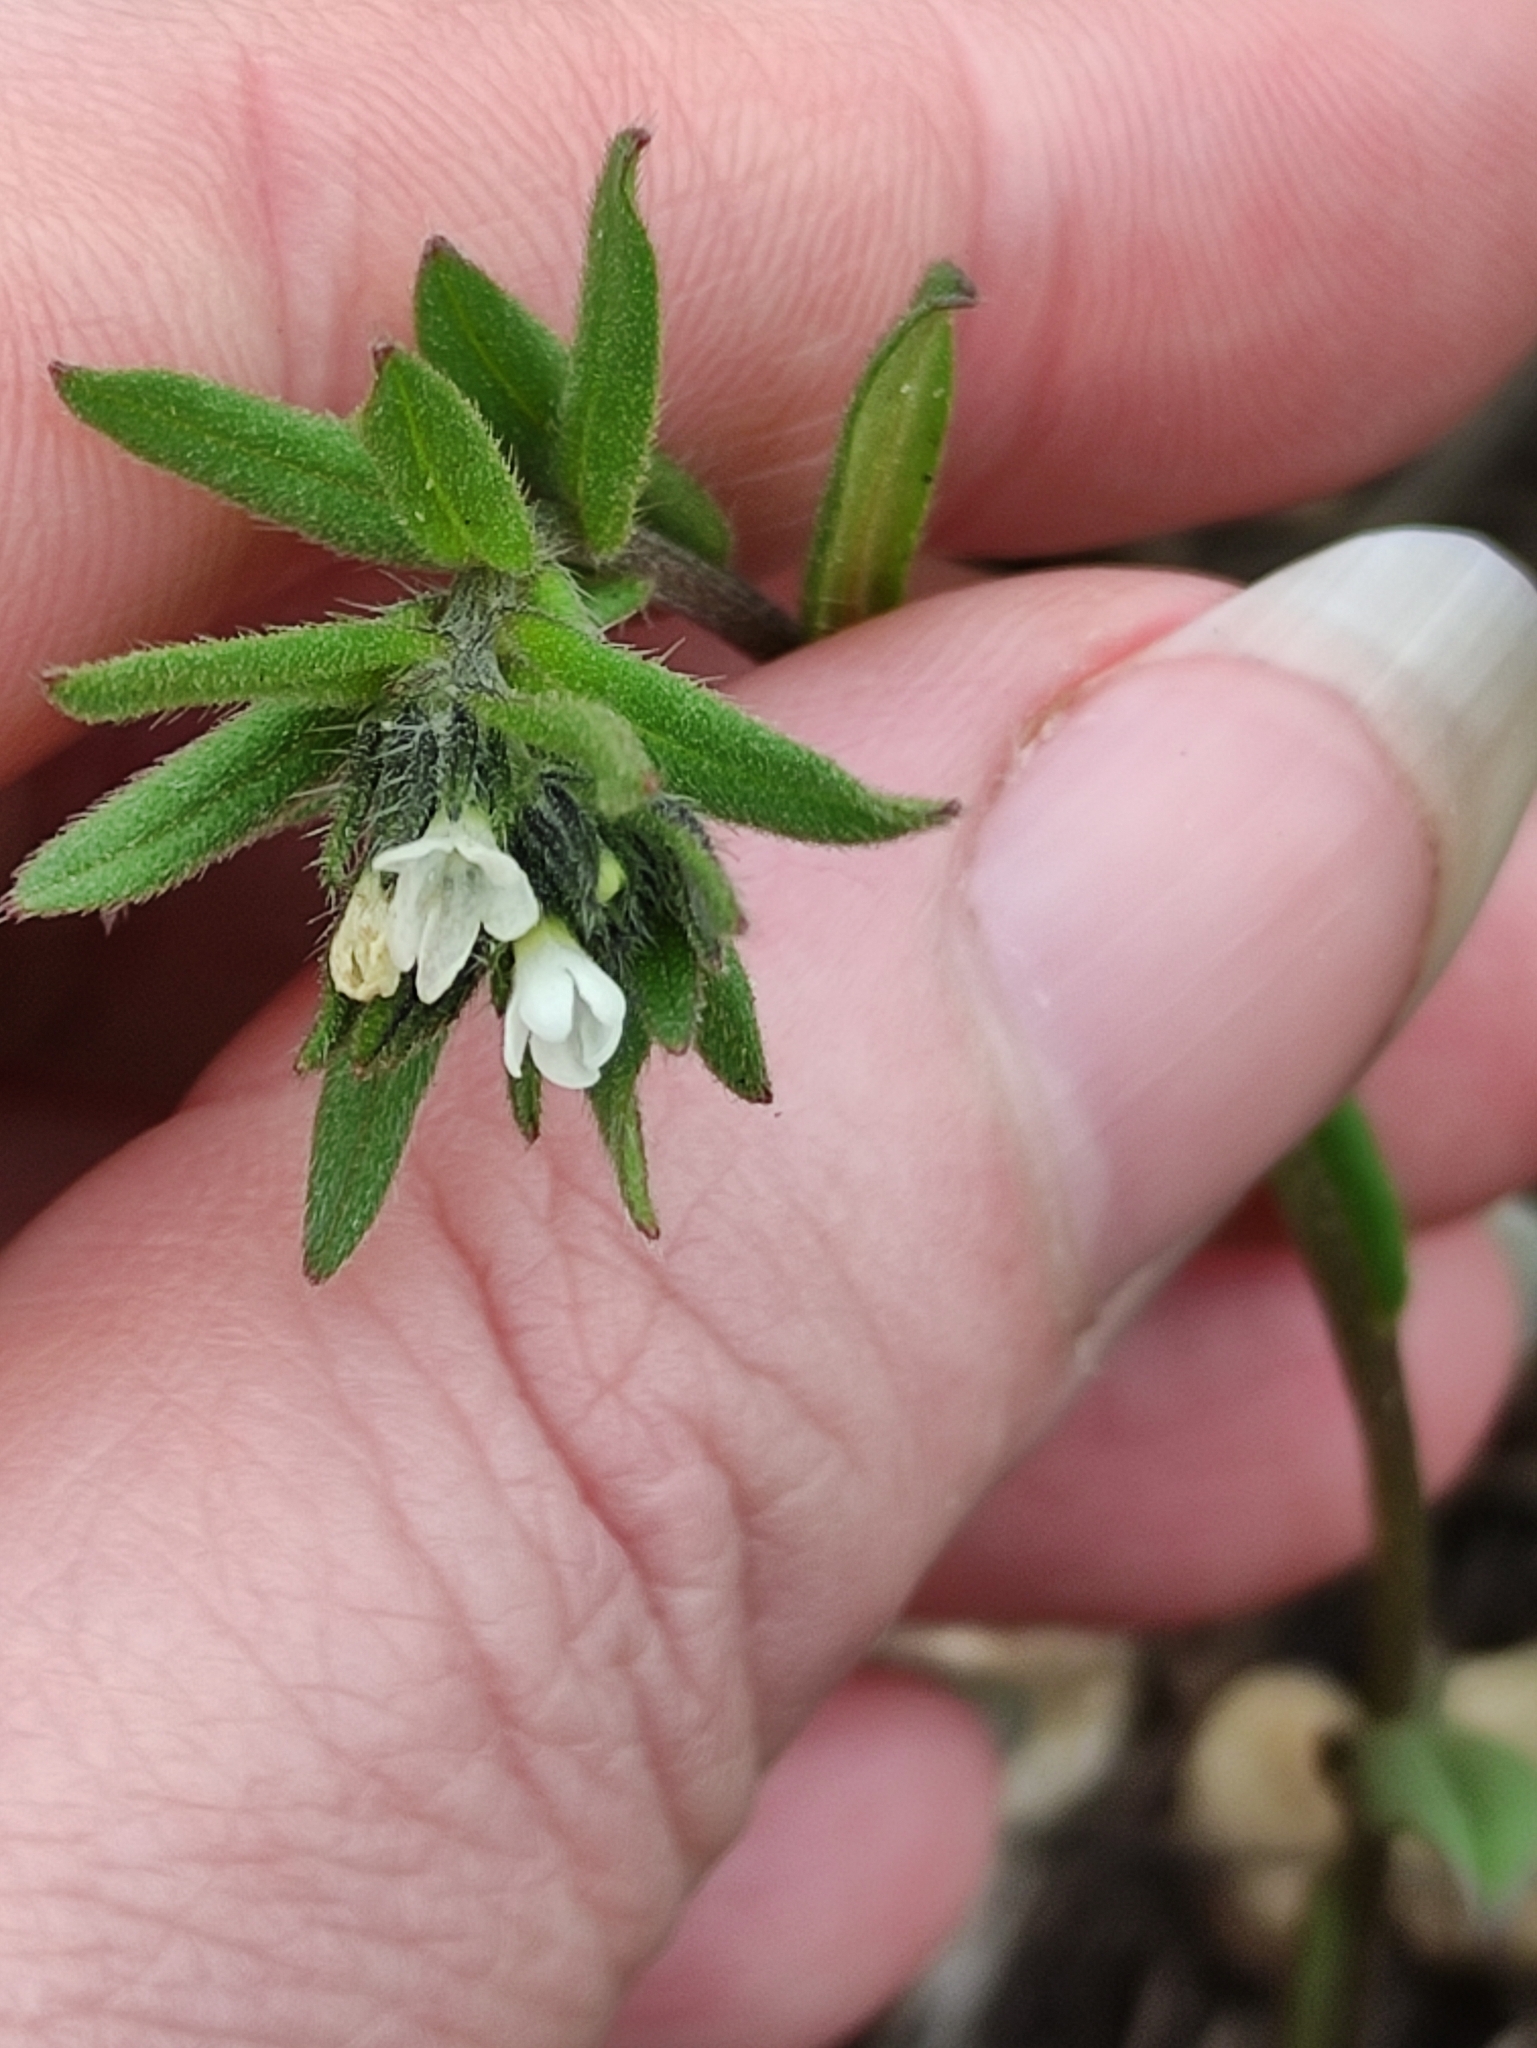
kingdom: Plantae
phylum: Tracheophyta
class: Magnoliopsida
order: Boraginales
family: Boraginaceae
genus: Buglossoides
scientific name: Buglossoides arvensis
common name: Corn gromwell
